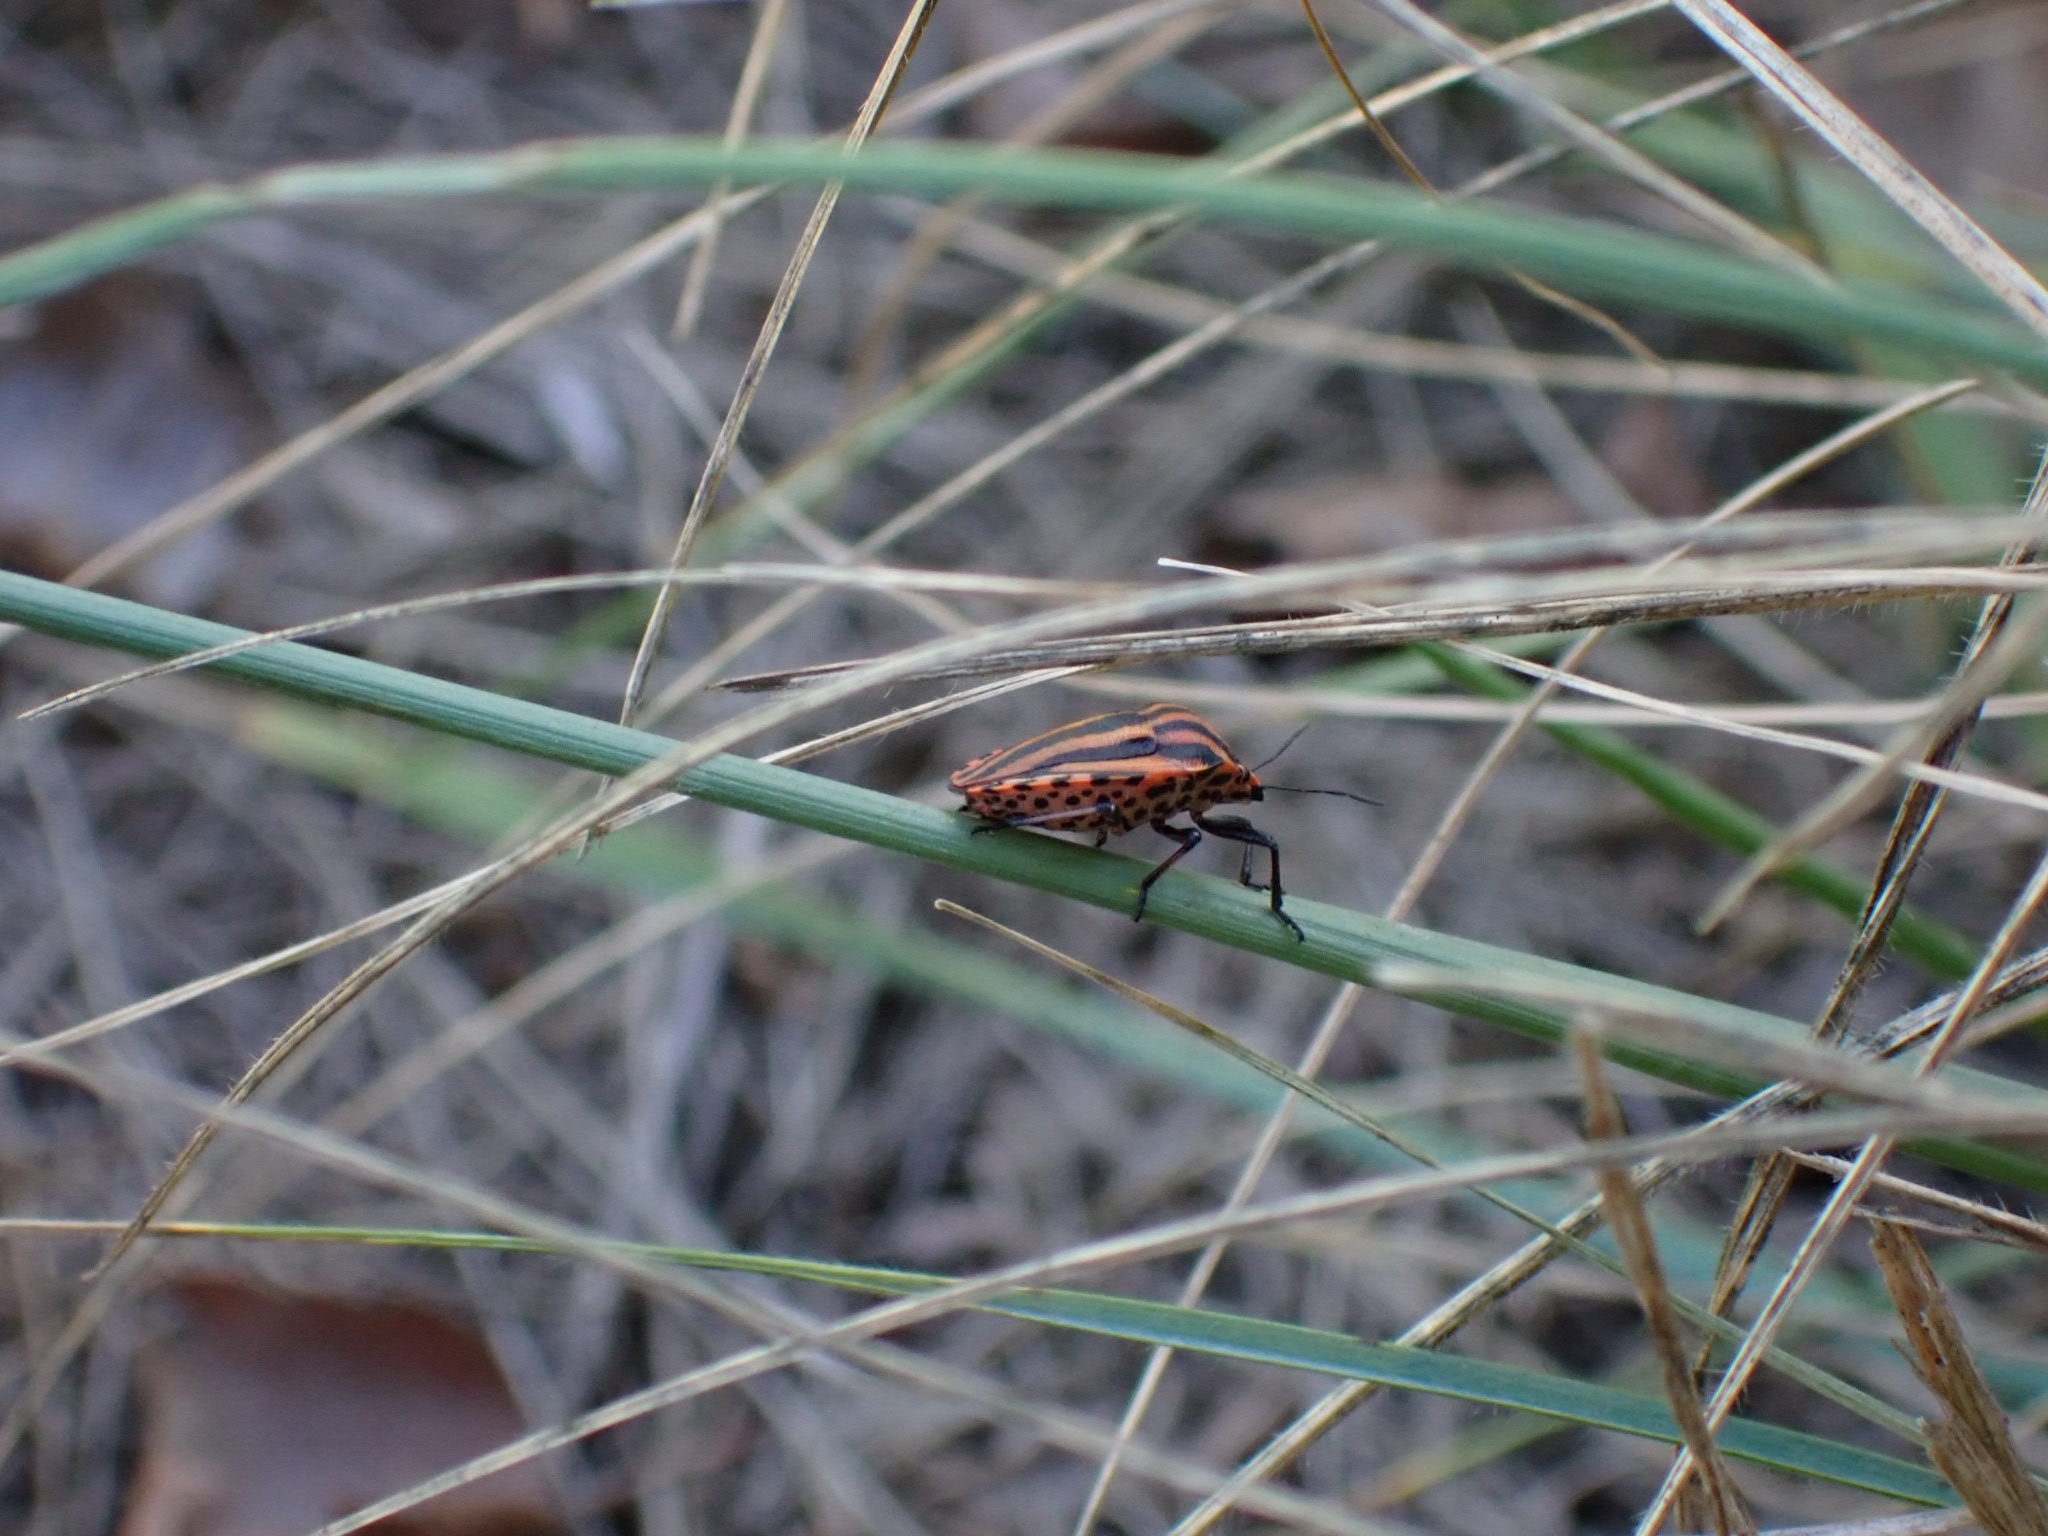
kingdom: Animalia
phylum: Arthropoda
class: Insecta
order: Hemiptera
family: Pentatomidae
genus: Graphosoma
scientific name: Graphosoma italicum
